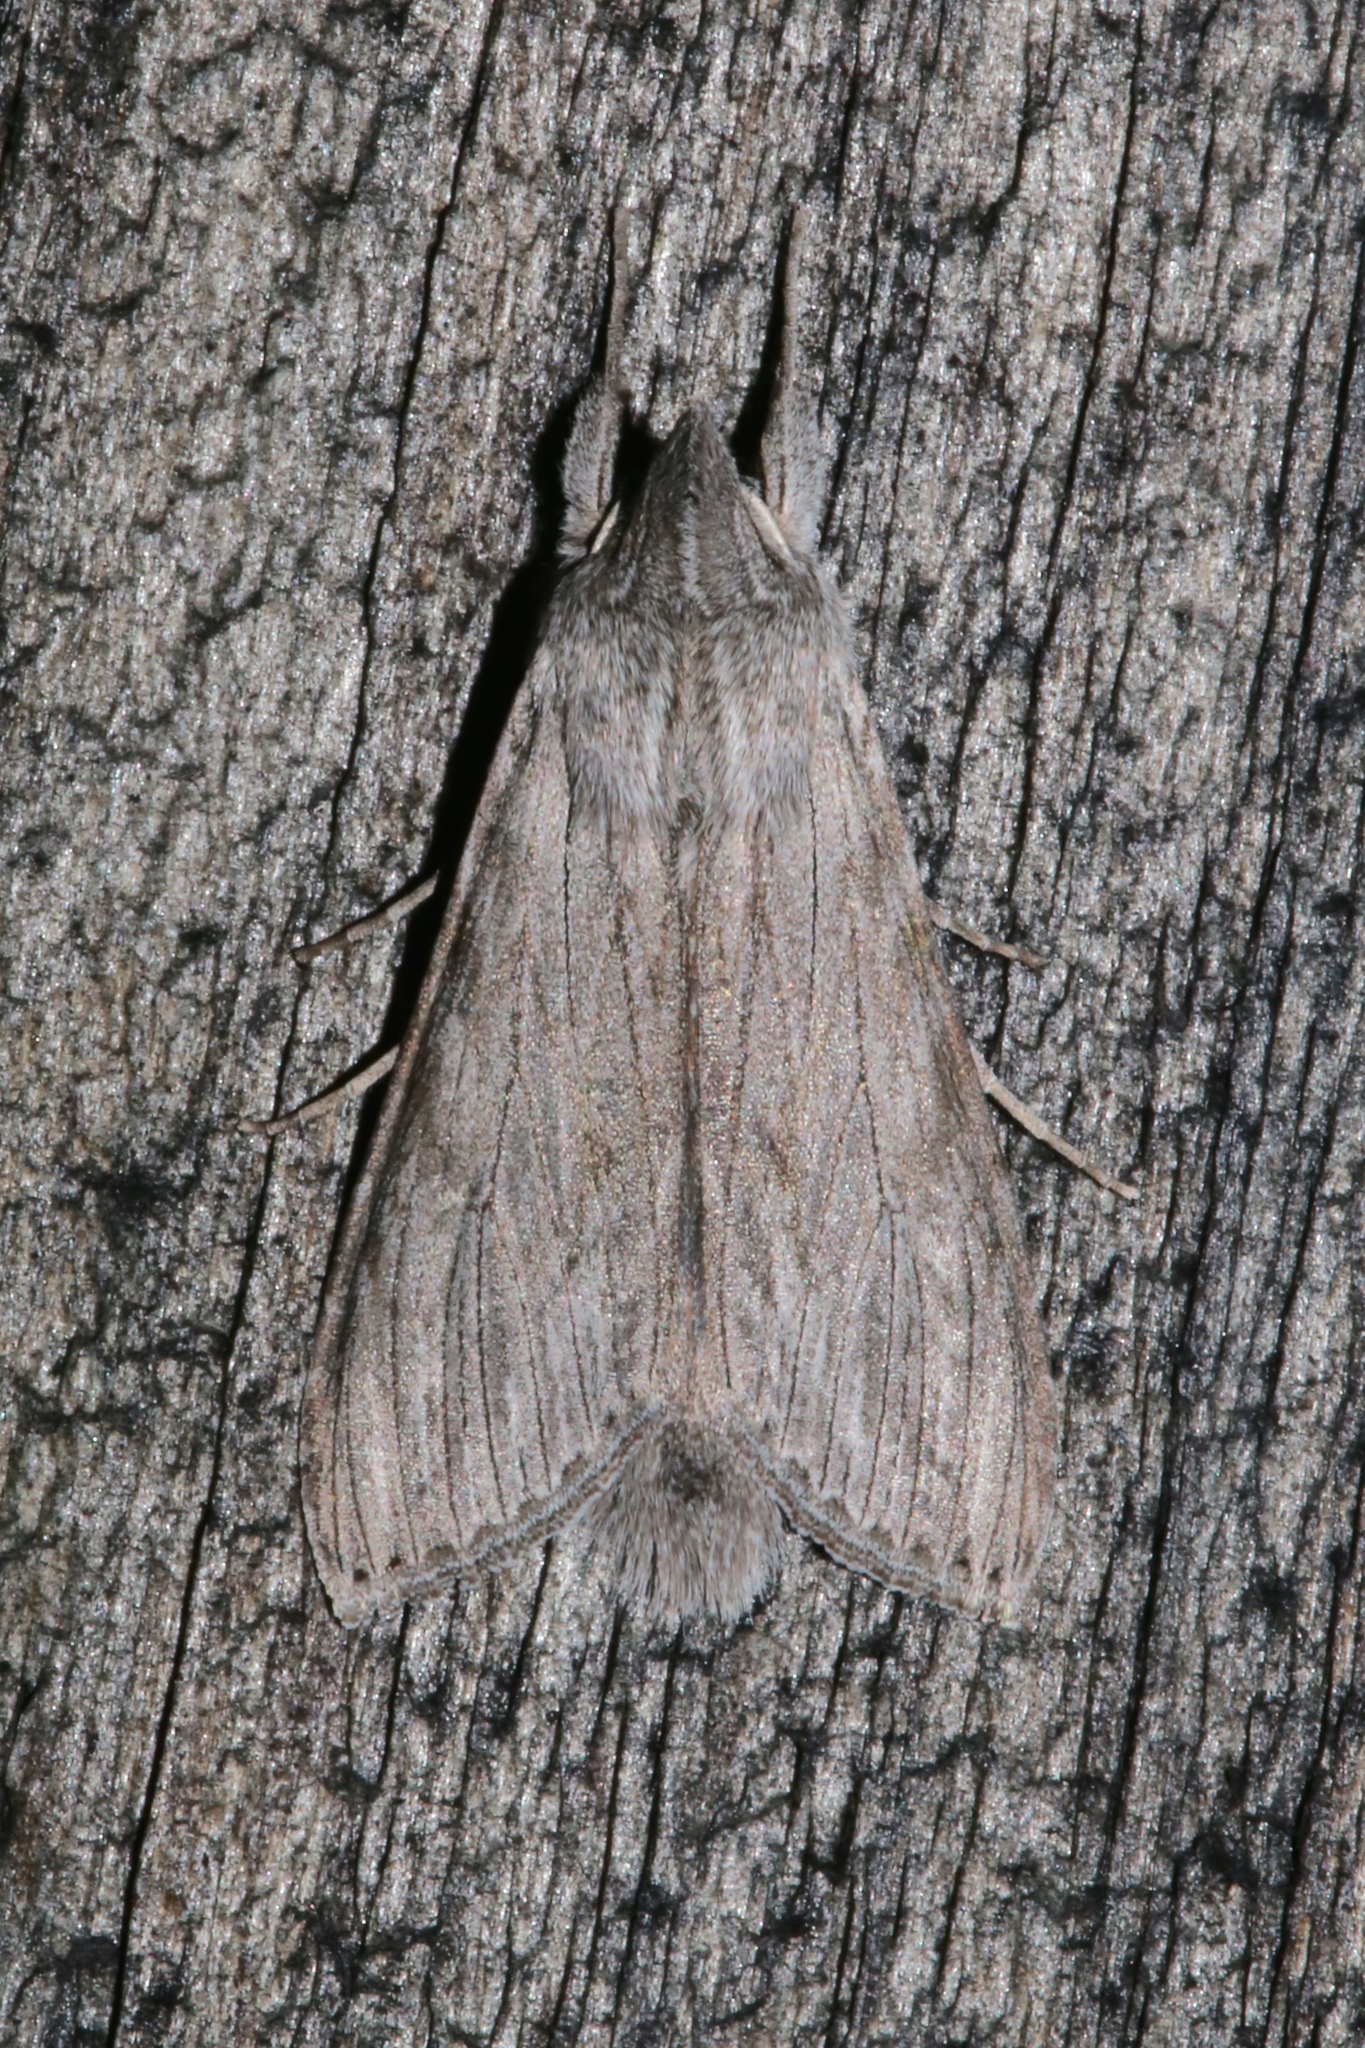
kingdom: Animalia
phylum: Arthropoda
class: Insecta
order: Lepidoptera
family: Noctuidae
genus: Cucullia
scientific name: Cucullia intermedia
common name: Goldenrod cutworm
